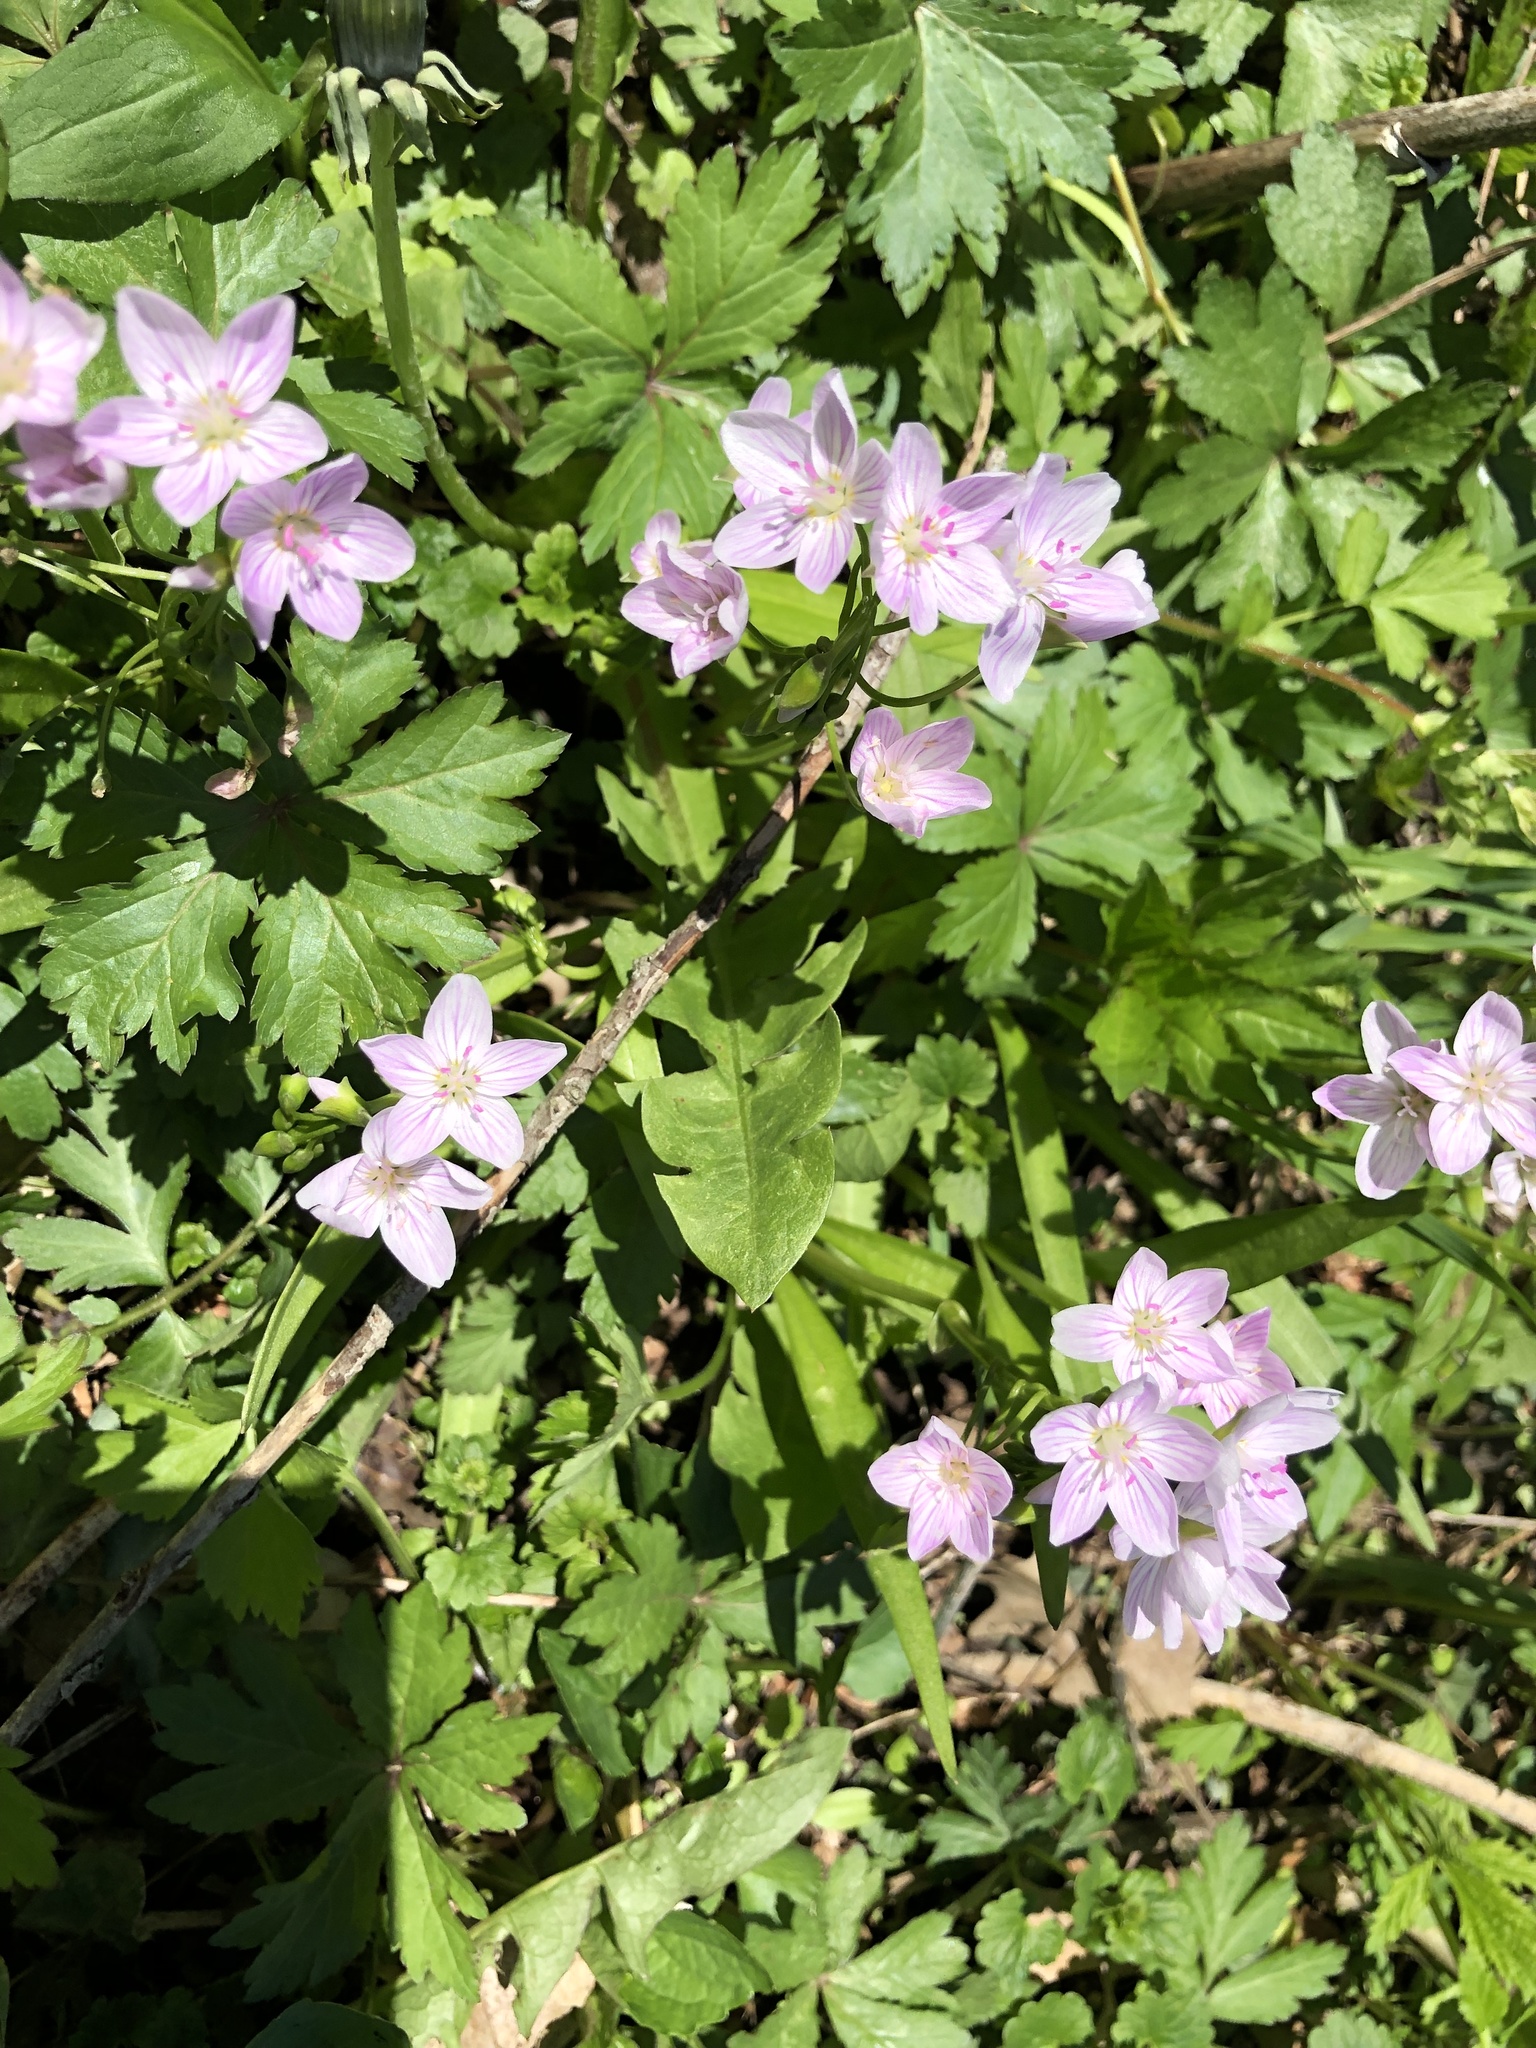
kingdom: Plantae
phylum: Tracheophyta
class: Magnoliopsida
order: Caryophyllales
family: Montiaceae
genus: Claytonia
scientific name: Claytonia virginica
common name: Virginia springbeauty
